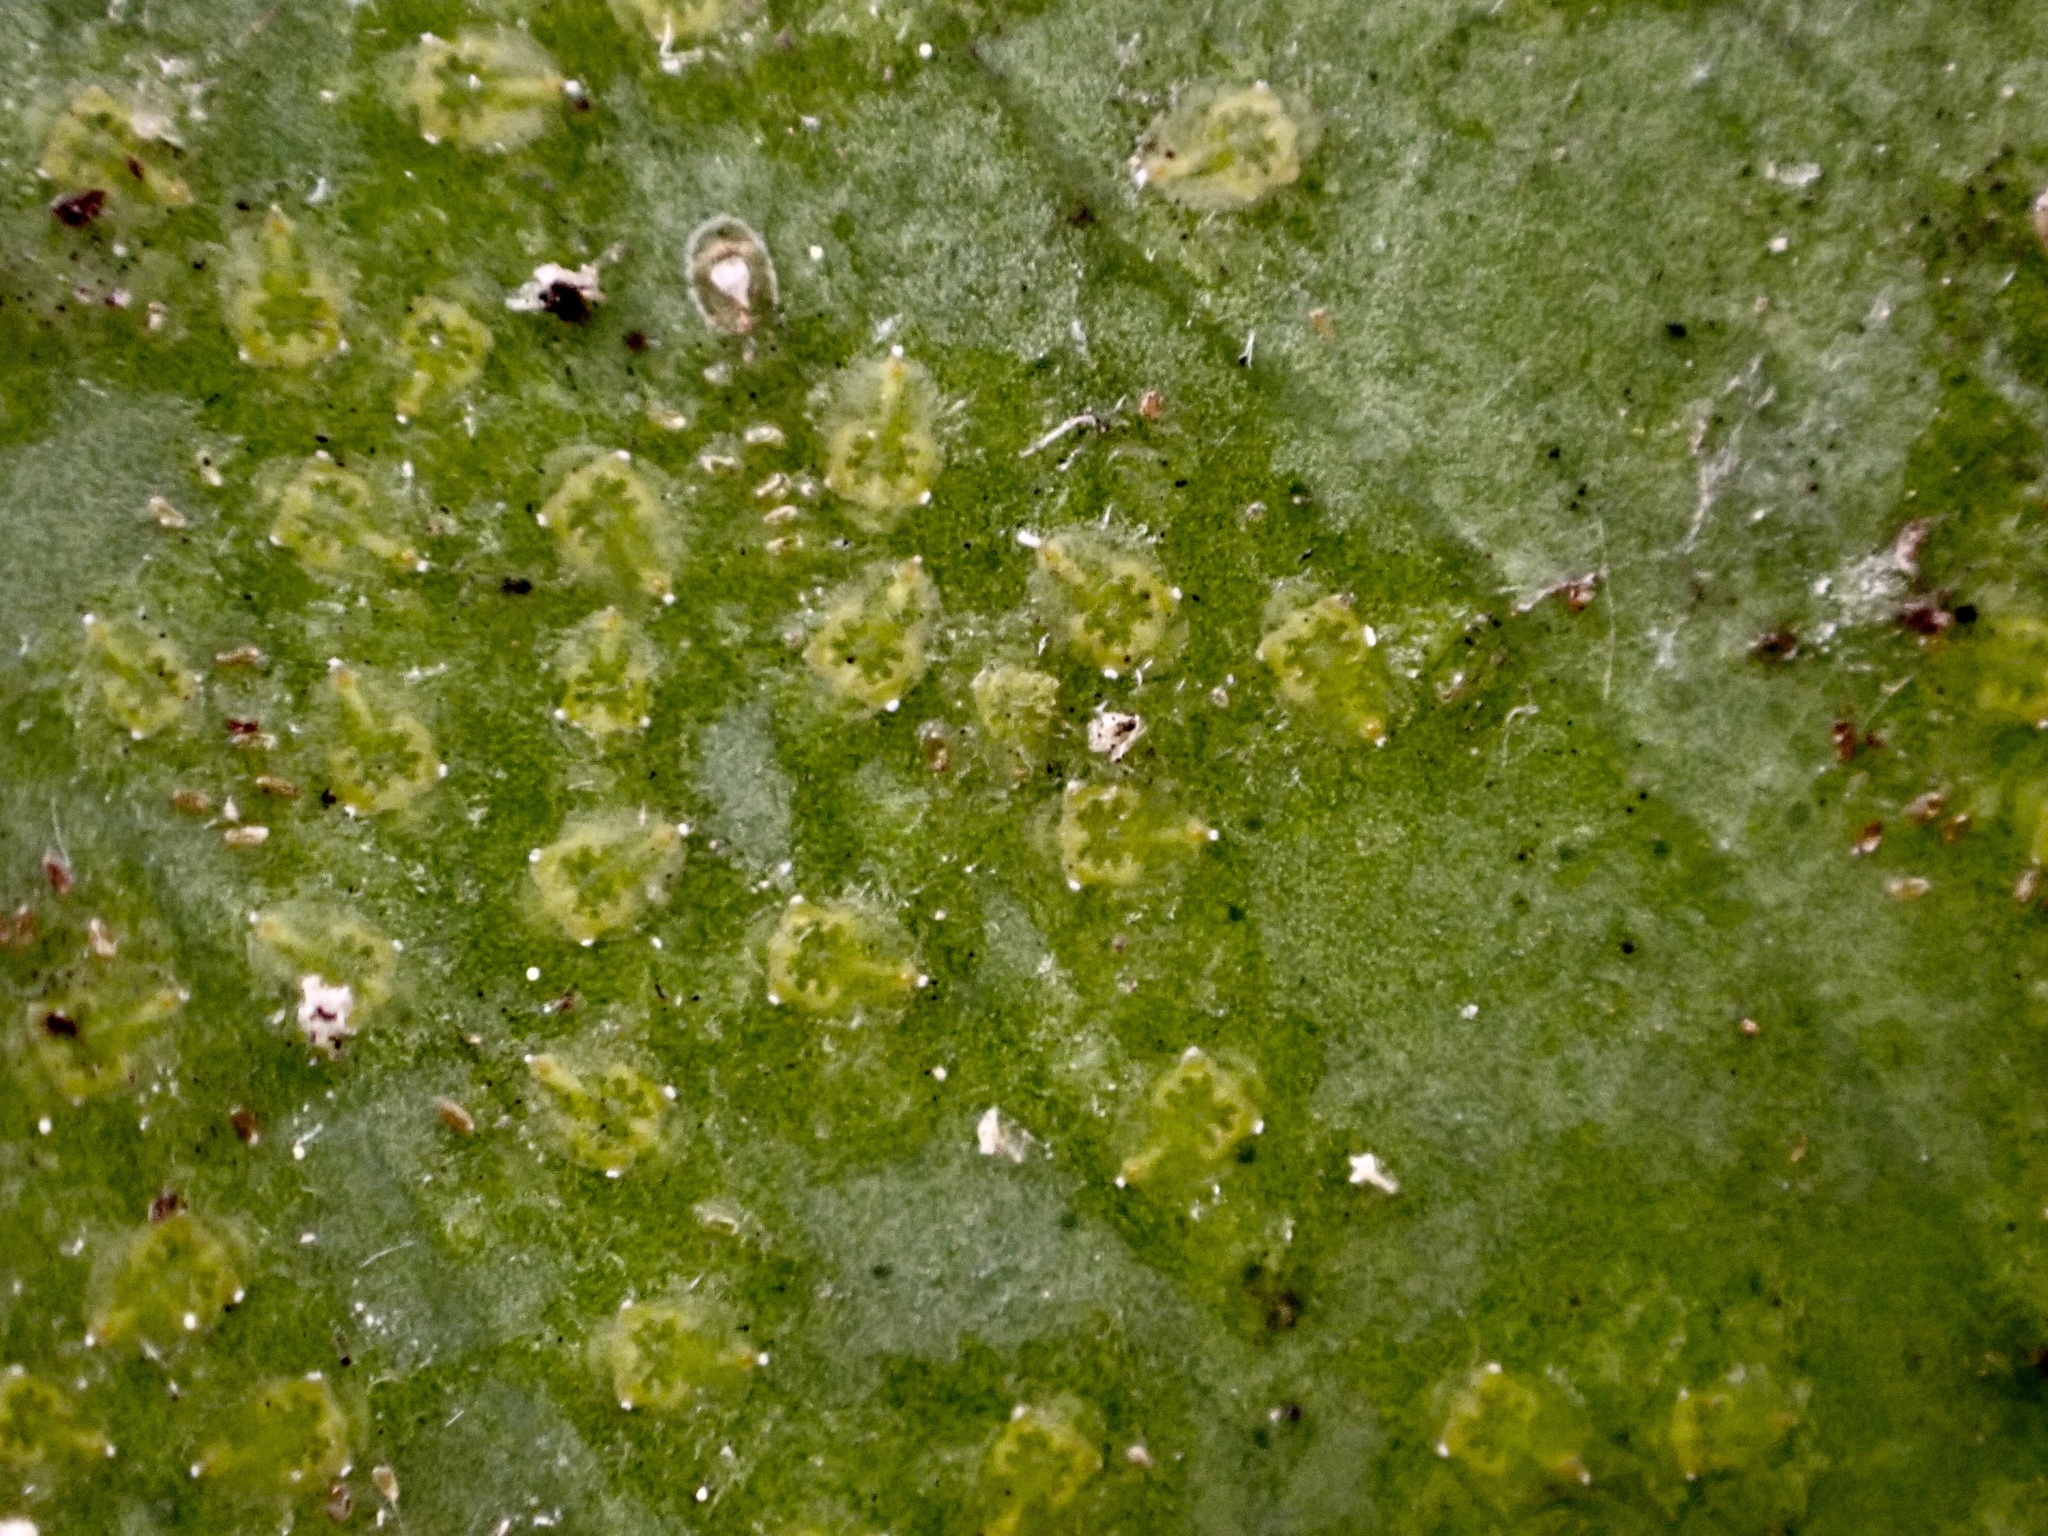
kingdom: Animalia
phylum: Arthropoda
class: Insecta
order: Hemiptera
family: Aleyrodidae
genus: Orchamoplatus
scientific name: Orchamoplatus citri
